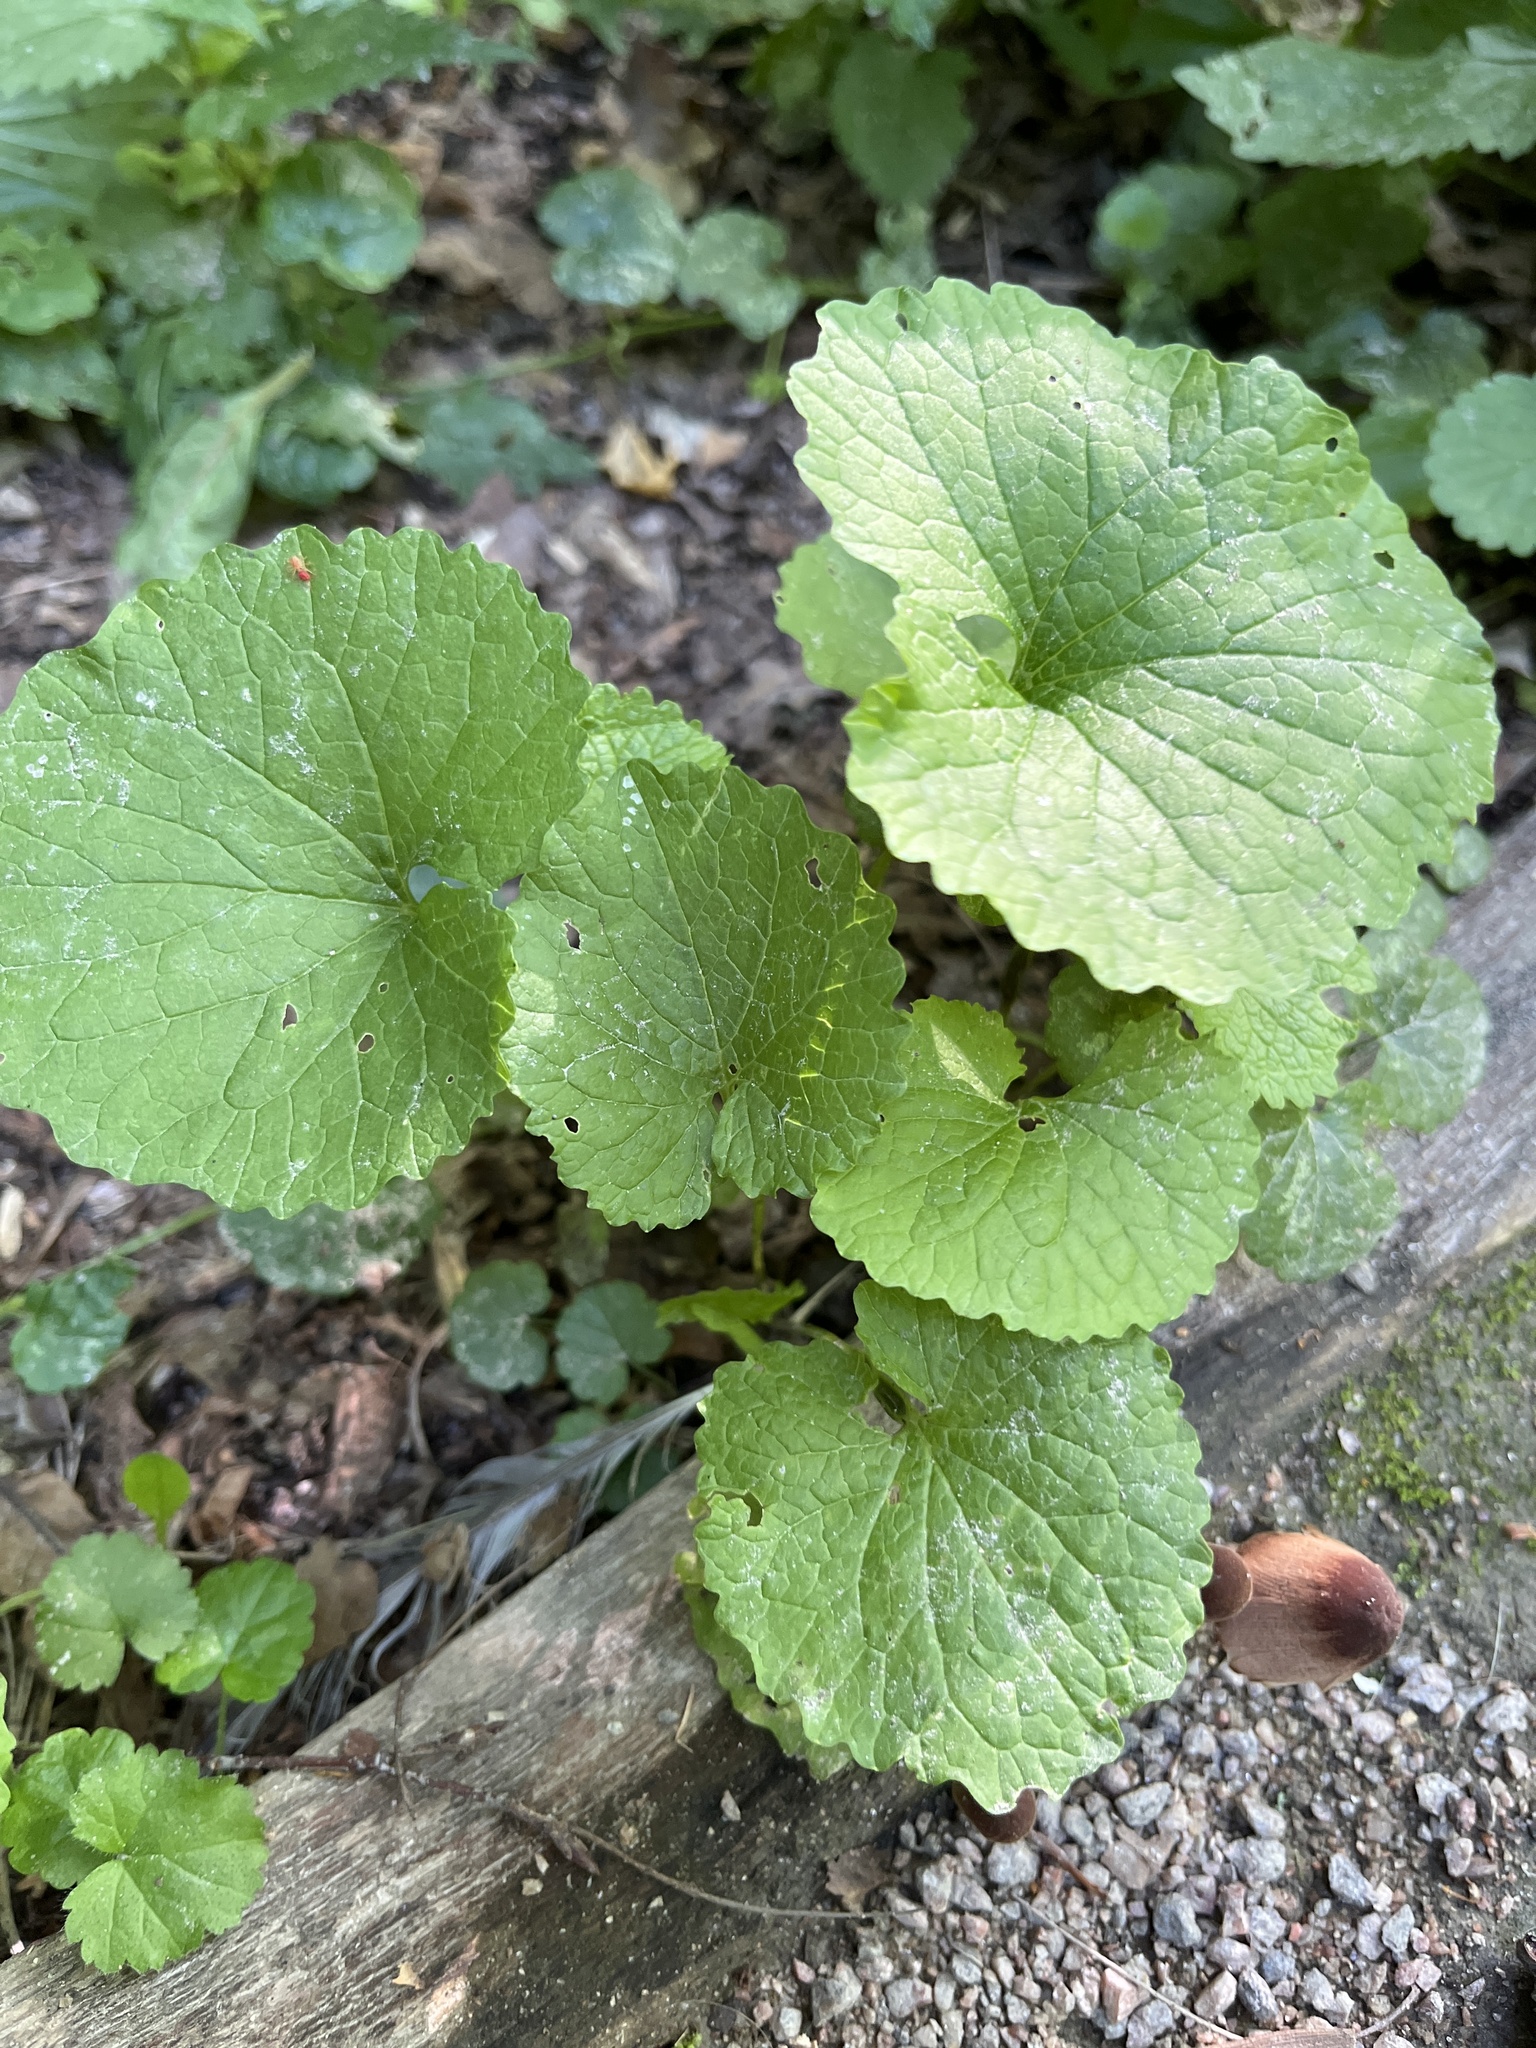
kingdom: Plantae
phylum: Tracheophyta
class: Magnoliopsida
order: Brassicales
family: Brassicaceae
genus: Alliaria
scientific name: Alliaria petiolata
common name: Garlic mustard
